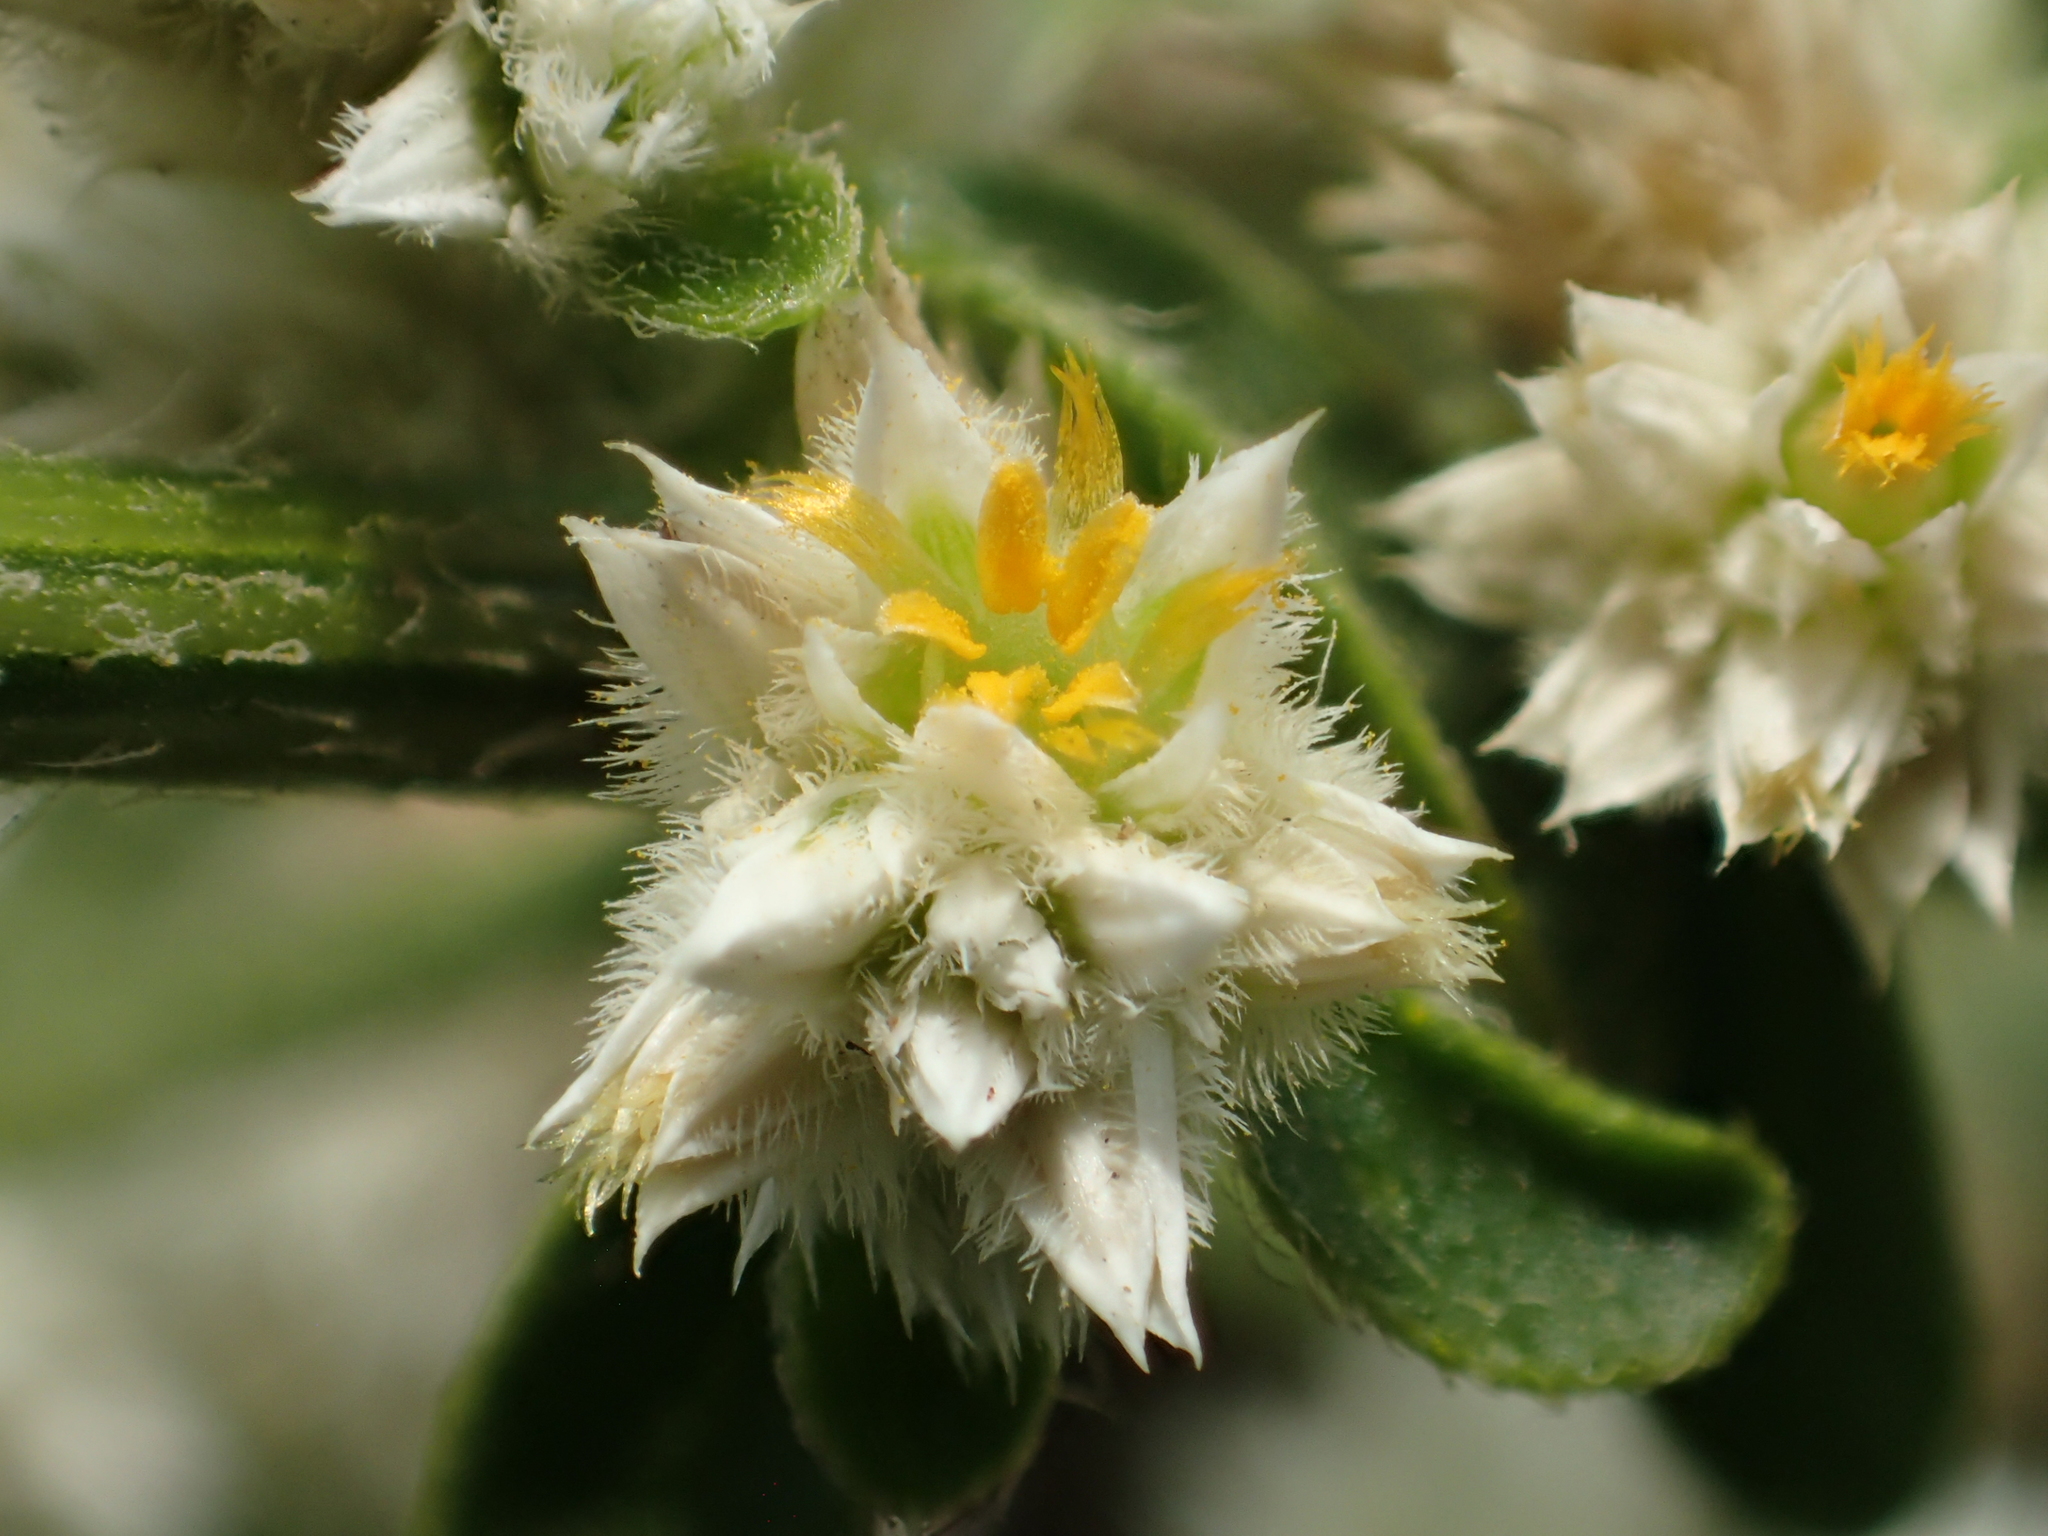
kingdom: Plantae
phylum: Tracheophyta
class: Magnoliopsida
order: Caryophyllales
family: Amaranthaceae
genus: Alternanthera
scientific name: Alternanthera bettzickiana
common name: Calico-plant
